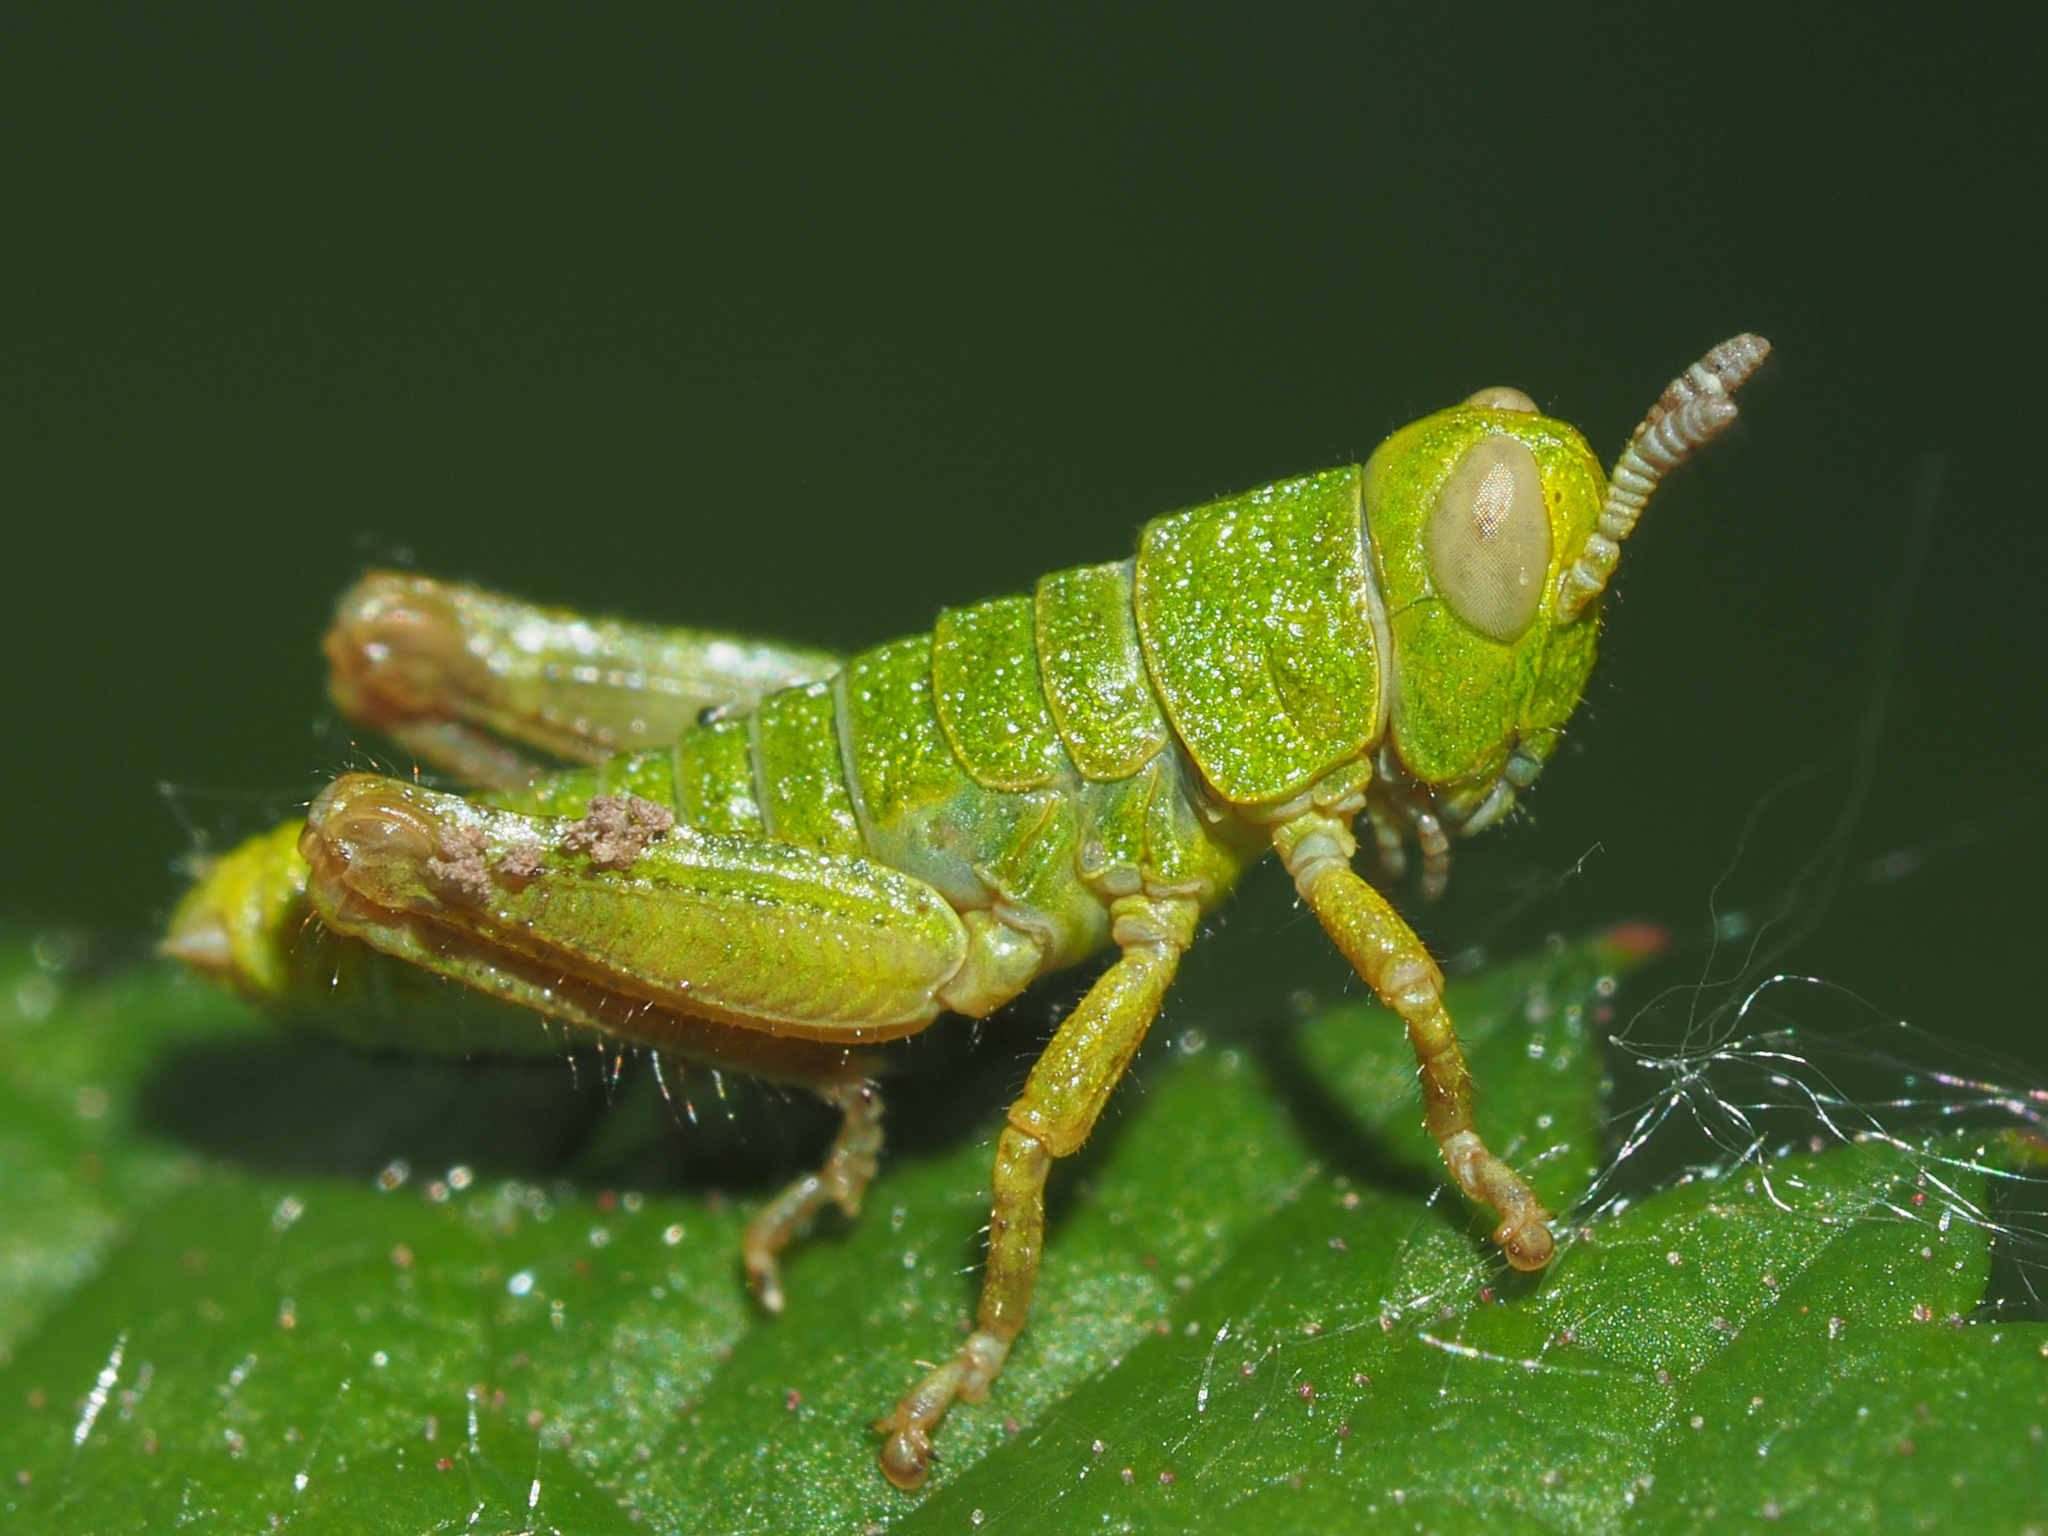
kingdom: Animalia
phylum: Arthropoda
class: Insecta
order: Orthoptera
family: Acrididae
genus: Pezotettix
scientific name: Pezotettix giornae
